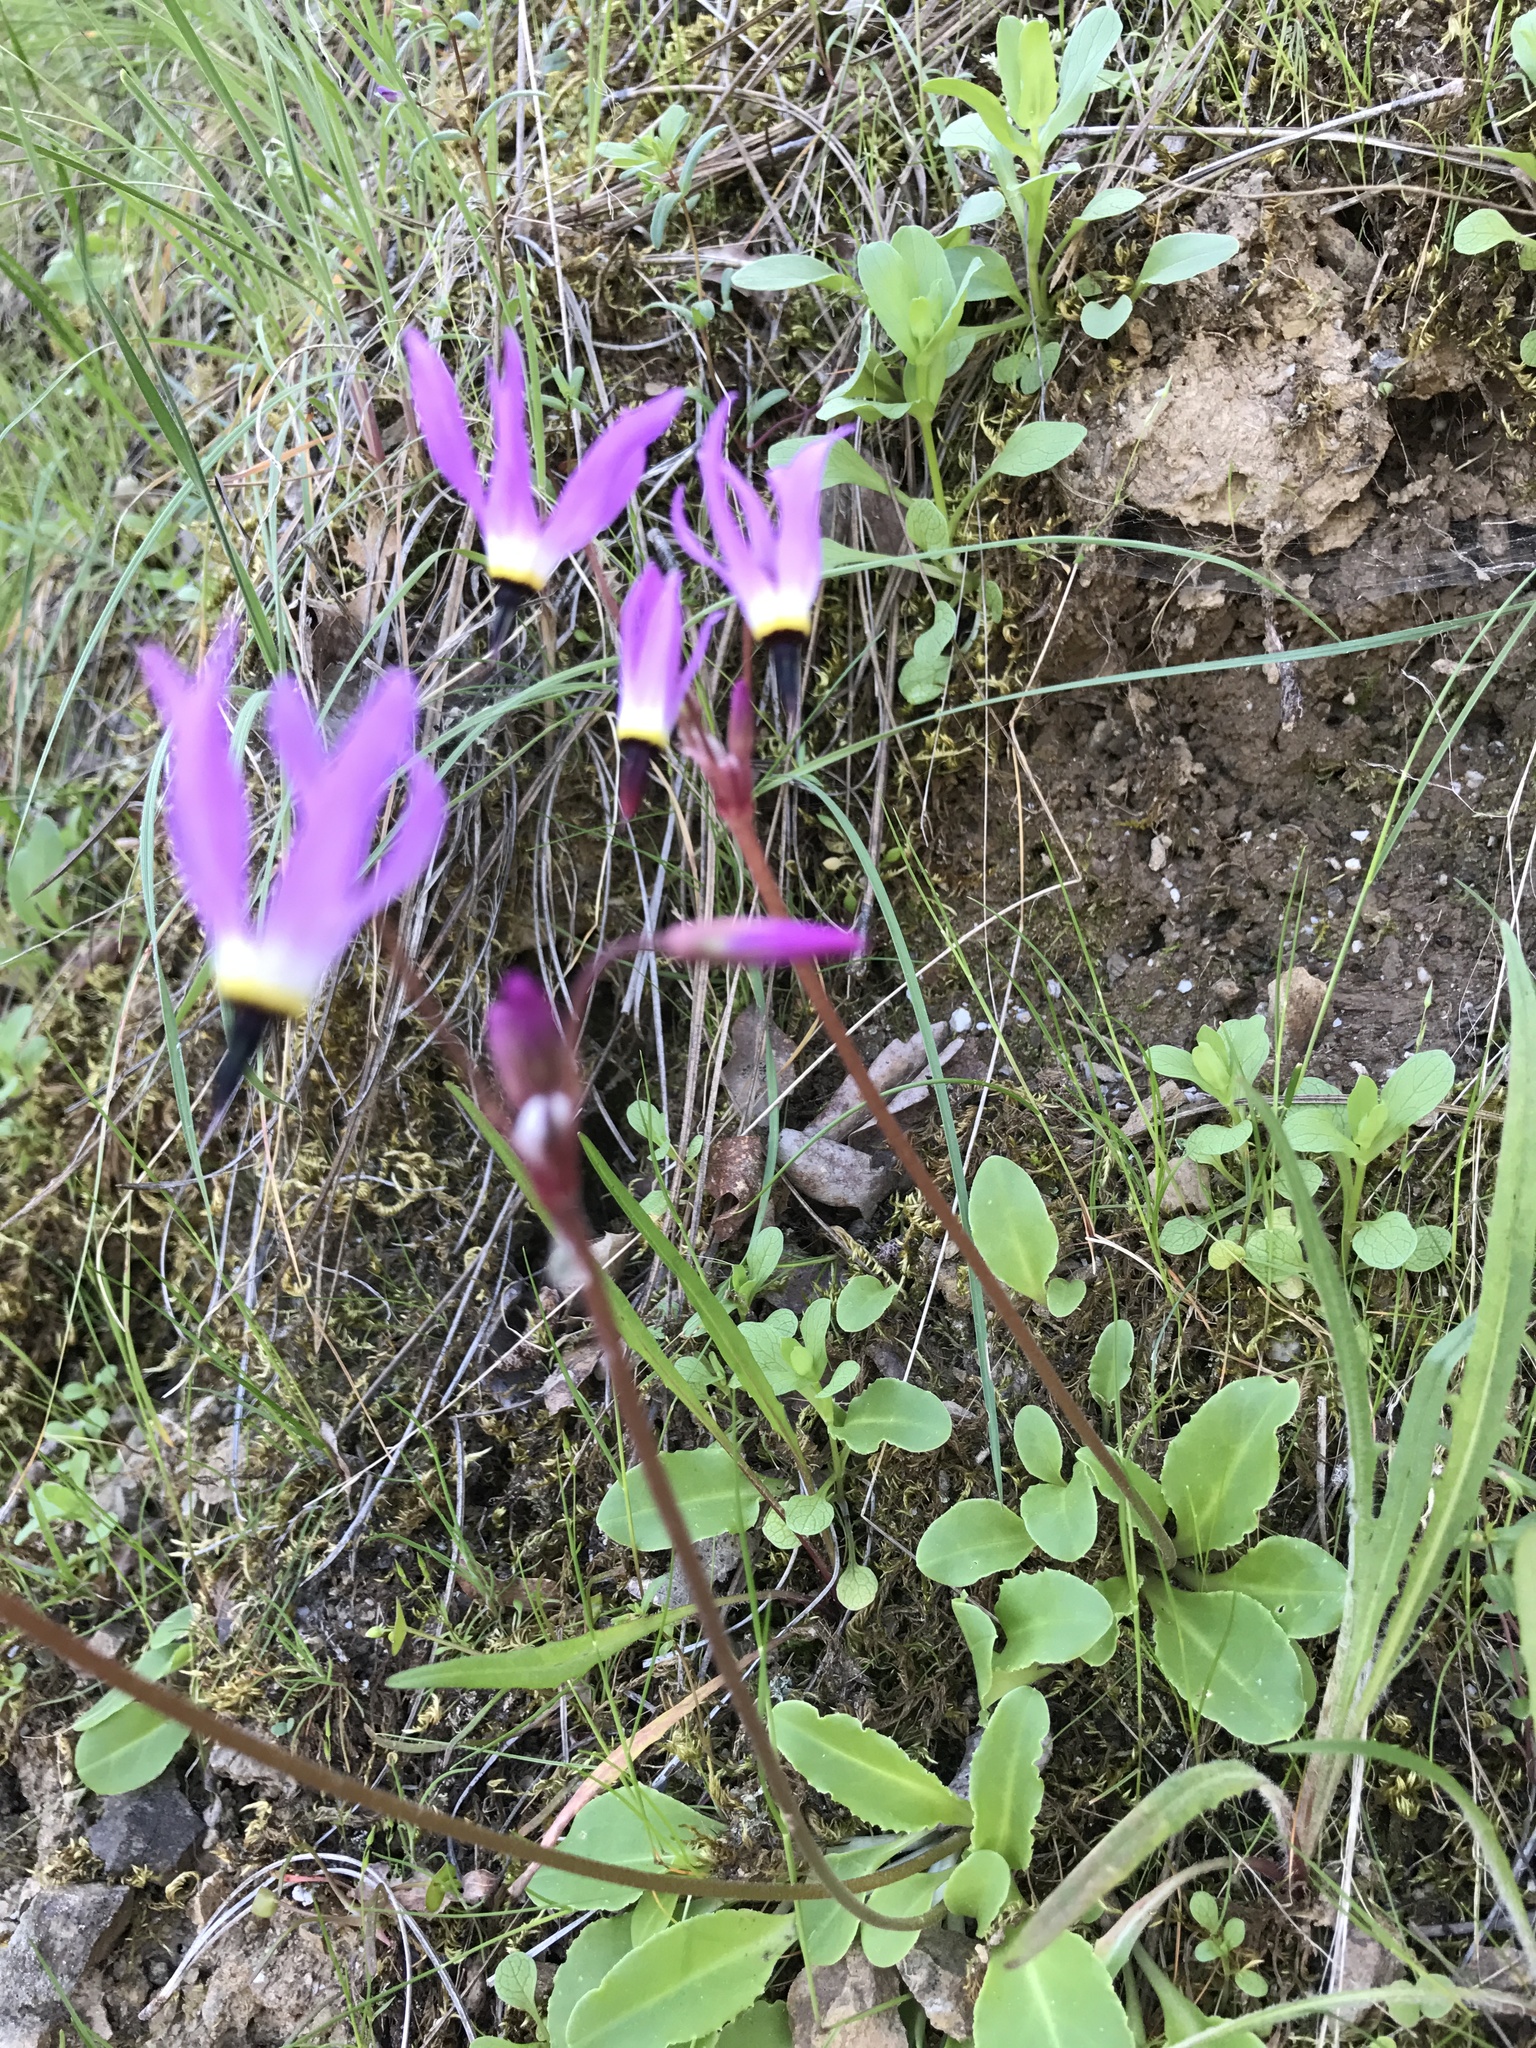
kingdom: Plantae
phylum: Tracheophyta
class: Magnoliopsida
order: Ericales
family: Primulaceae
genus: Dodecatheon
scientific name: Dodecatheon hendersonii
